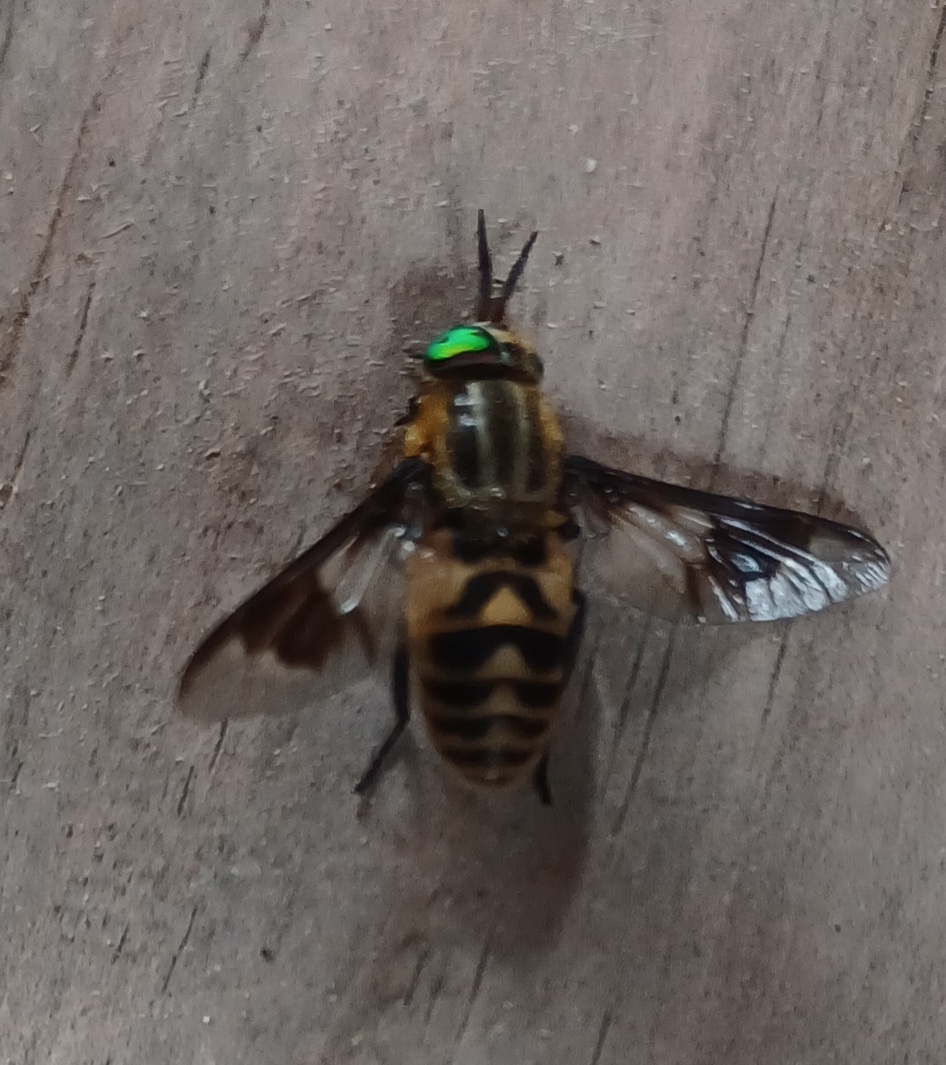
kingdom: Animalia
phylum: Arthropoda
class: Insecta
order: Diptera
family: Tabanidae
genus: Chrysops
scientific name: Chrysops divaricatus
